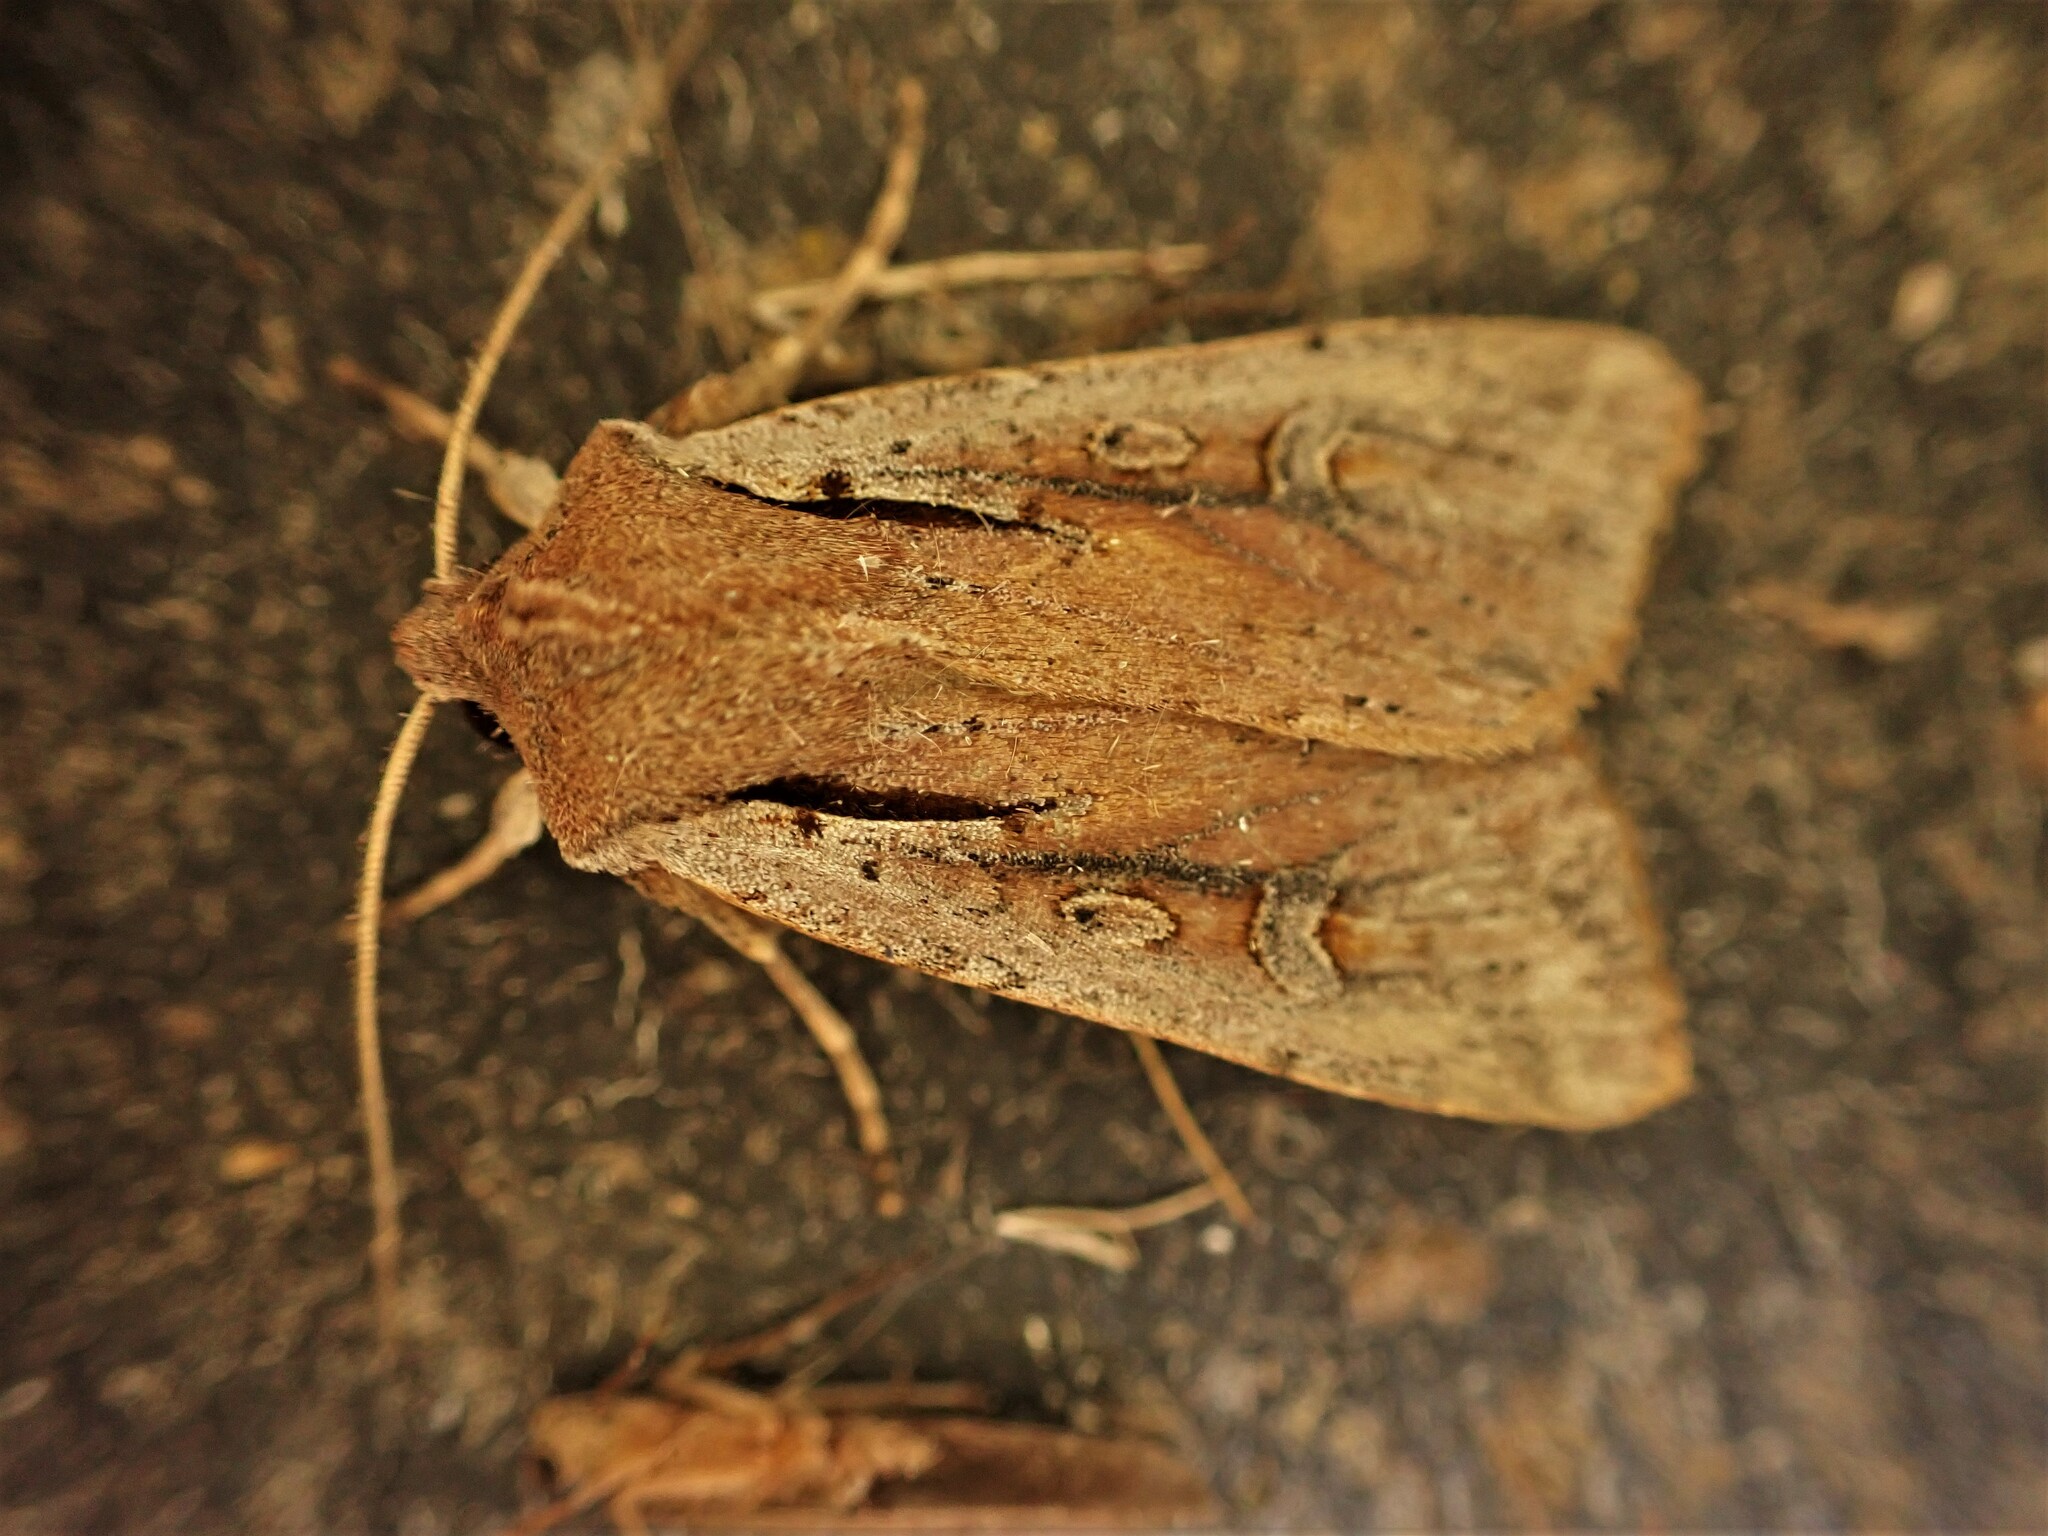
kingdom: Animalia
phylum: Arthropoda
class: Insecta
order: Lepidoptera
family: Noctuidae
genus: Ichneutica
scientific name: Ichneutica atristriga
